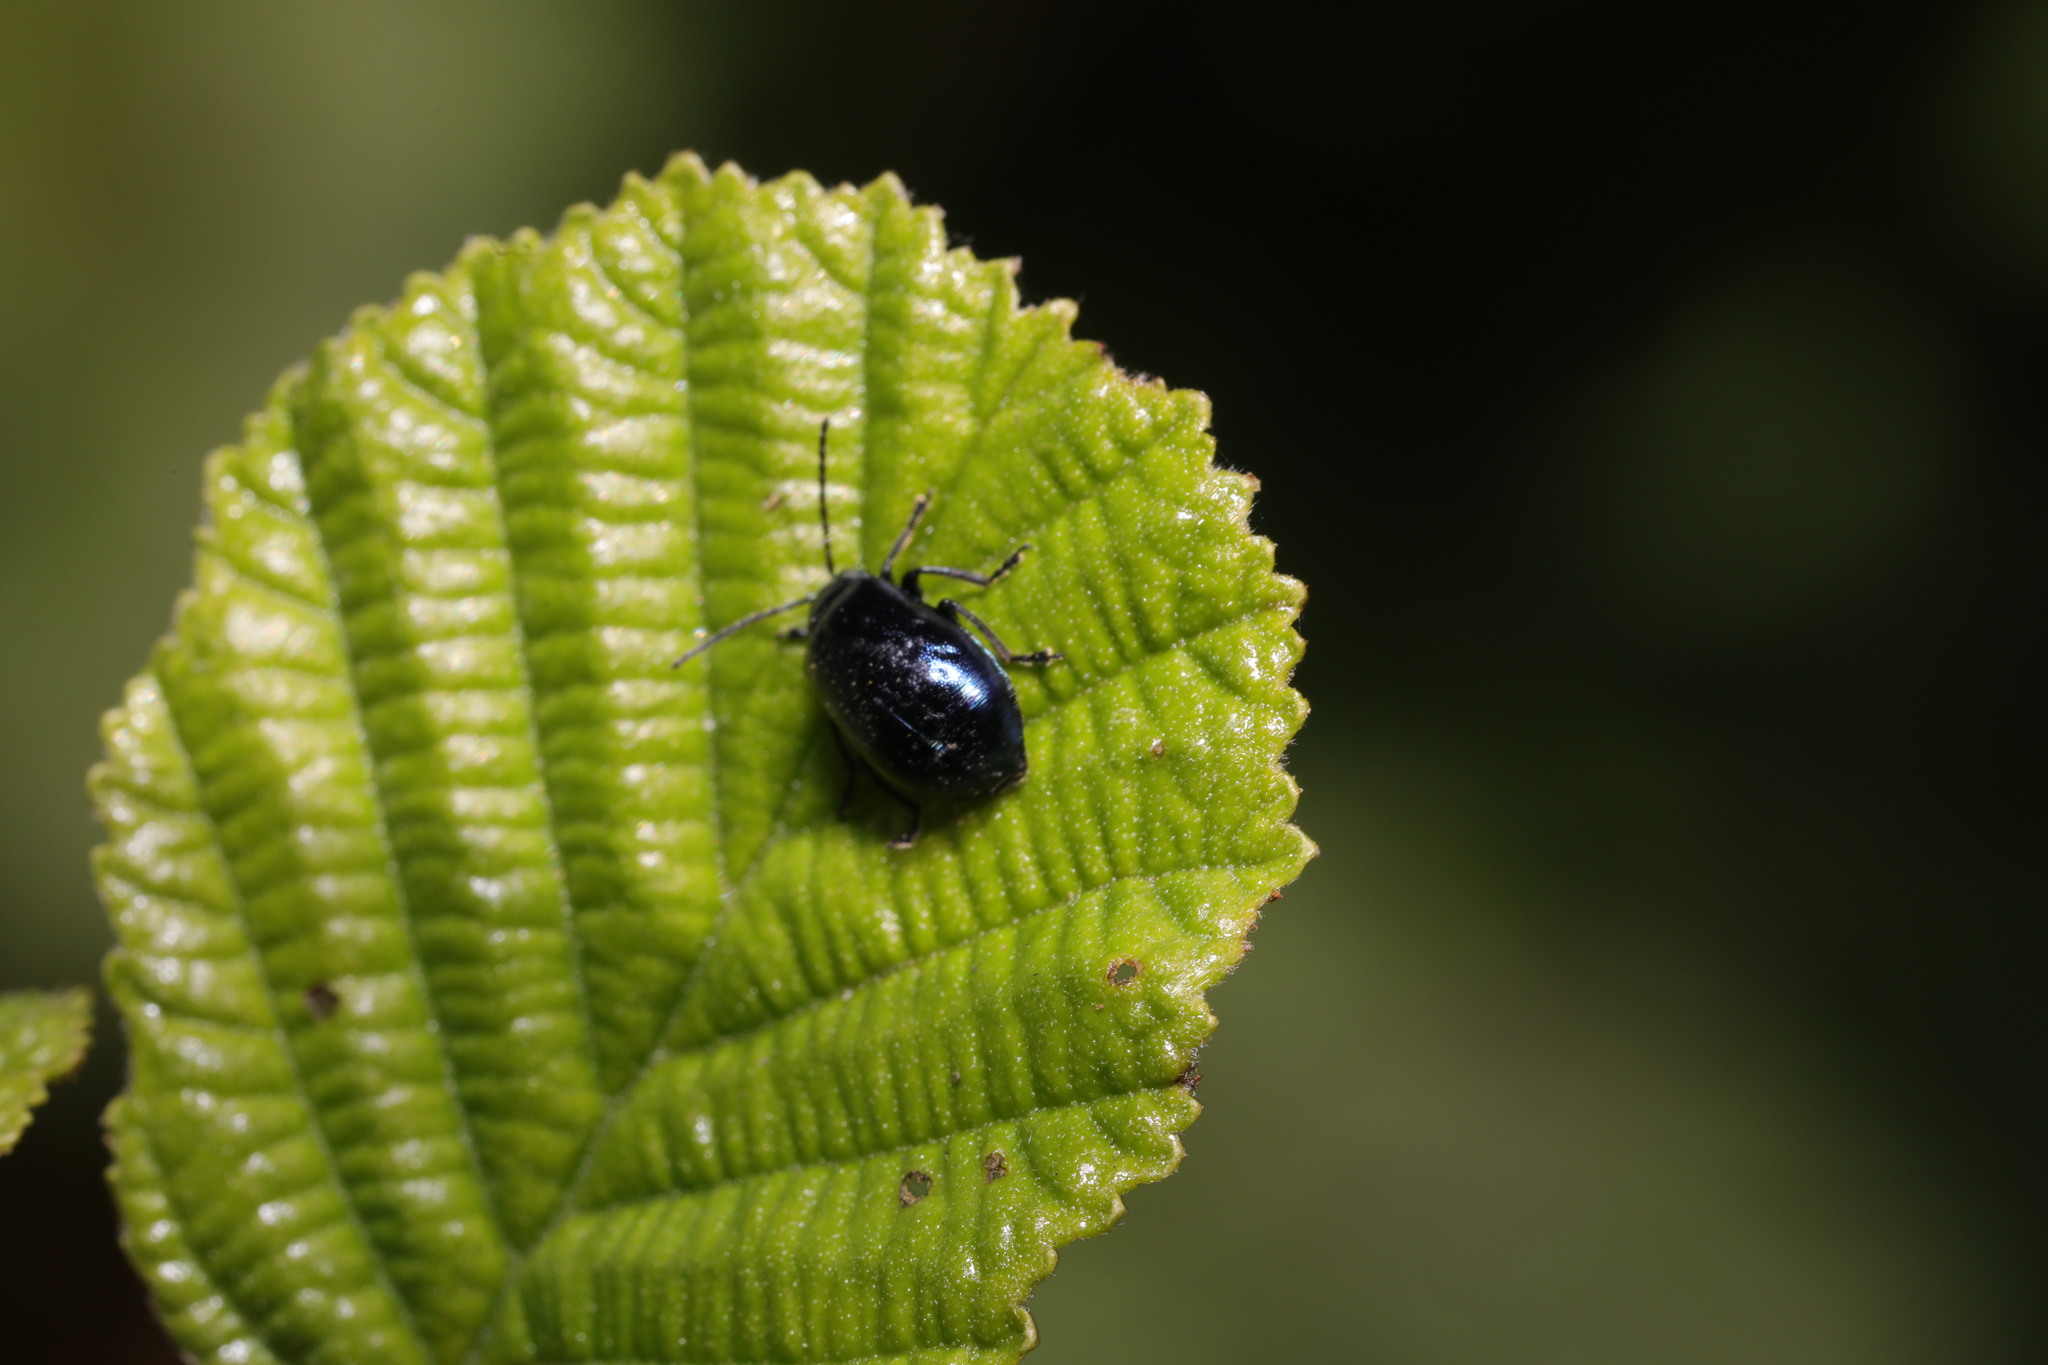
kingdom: Animalia
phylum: Arthropoda
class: Insecta
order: Coleoptera
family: Chrysomelidae
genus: Agelastica
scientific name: Agelastica alni
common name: Alder leaf beetle
